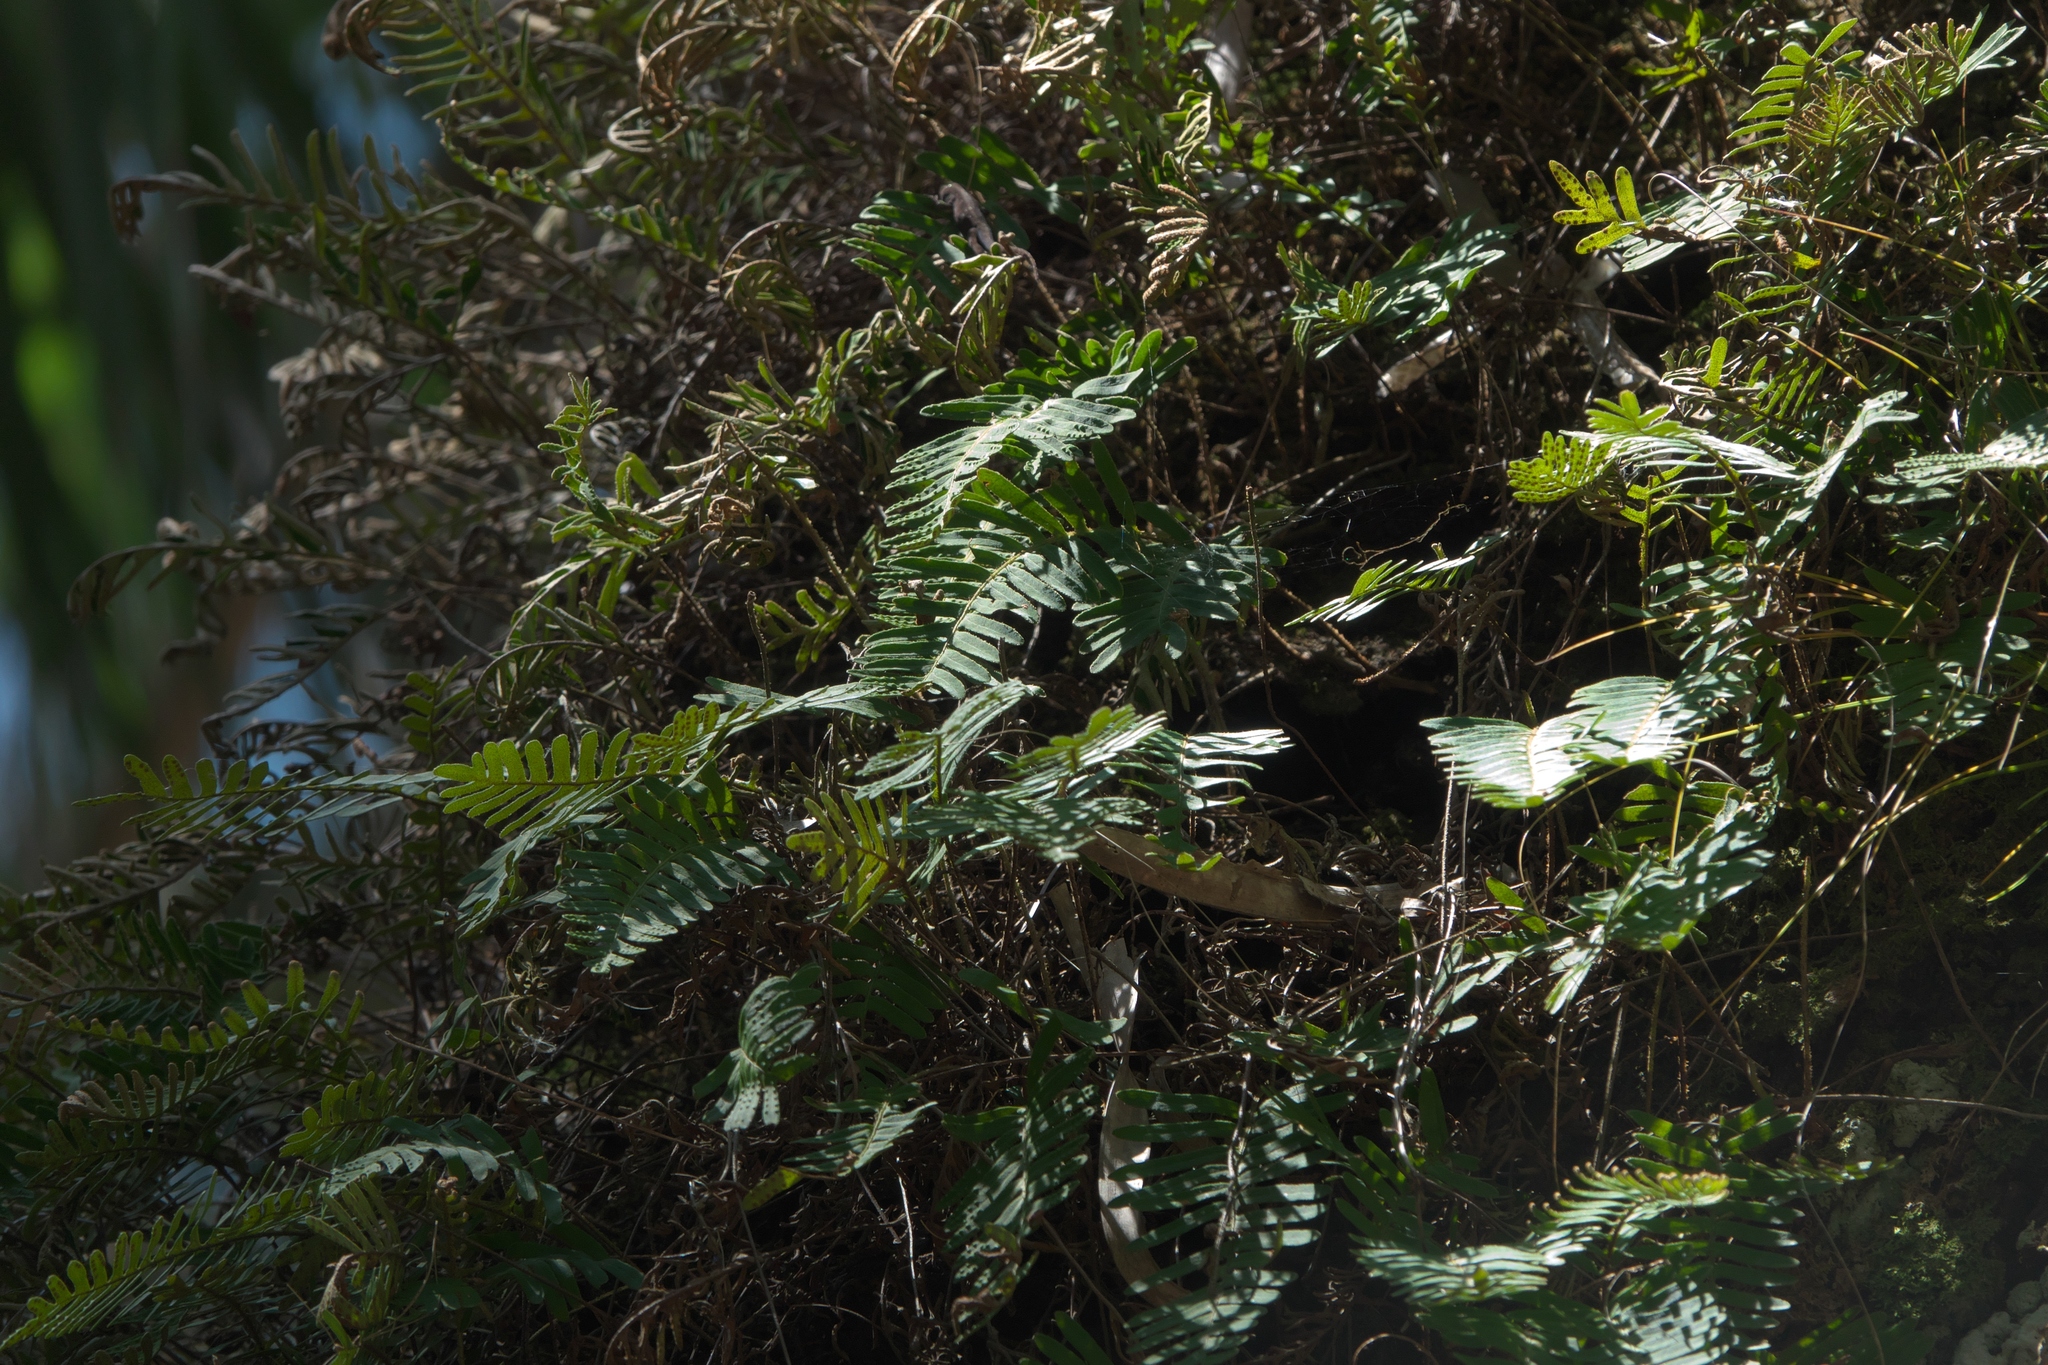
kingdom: Plantae
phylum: Tracheophyta
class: Polypodiopsida
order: Polypodiales
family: Polypodiaceae
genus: Pleopeltis
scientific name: Pleopeltis michauxiana
